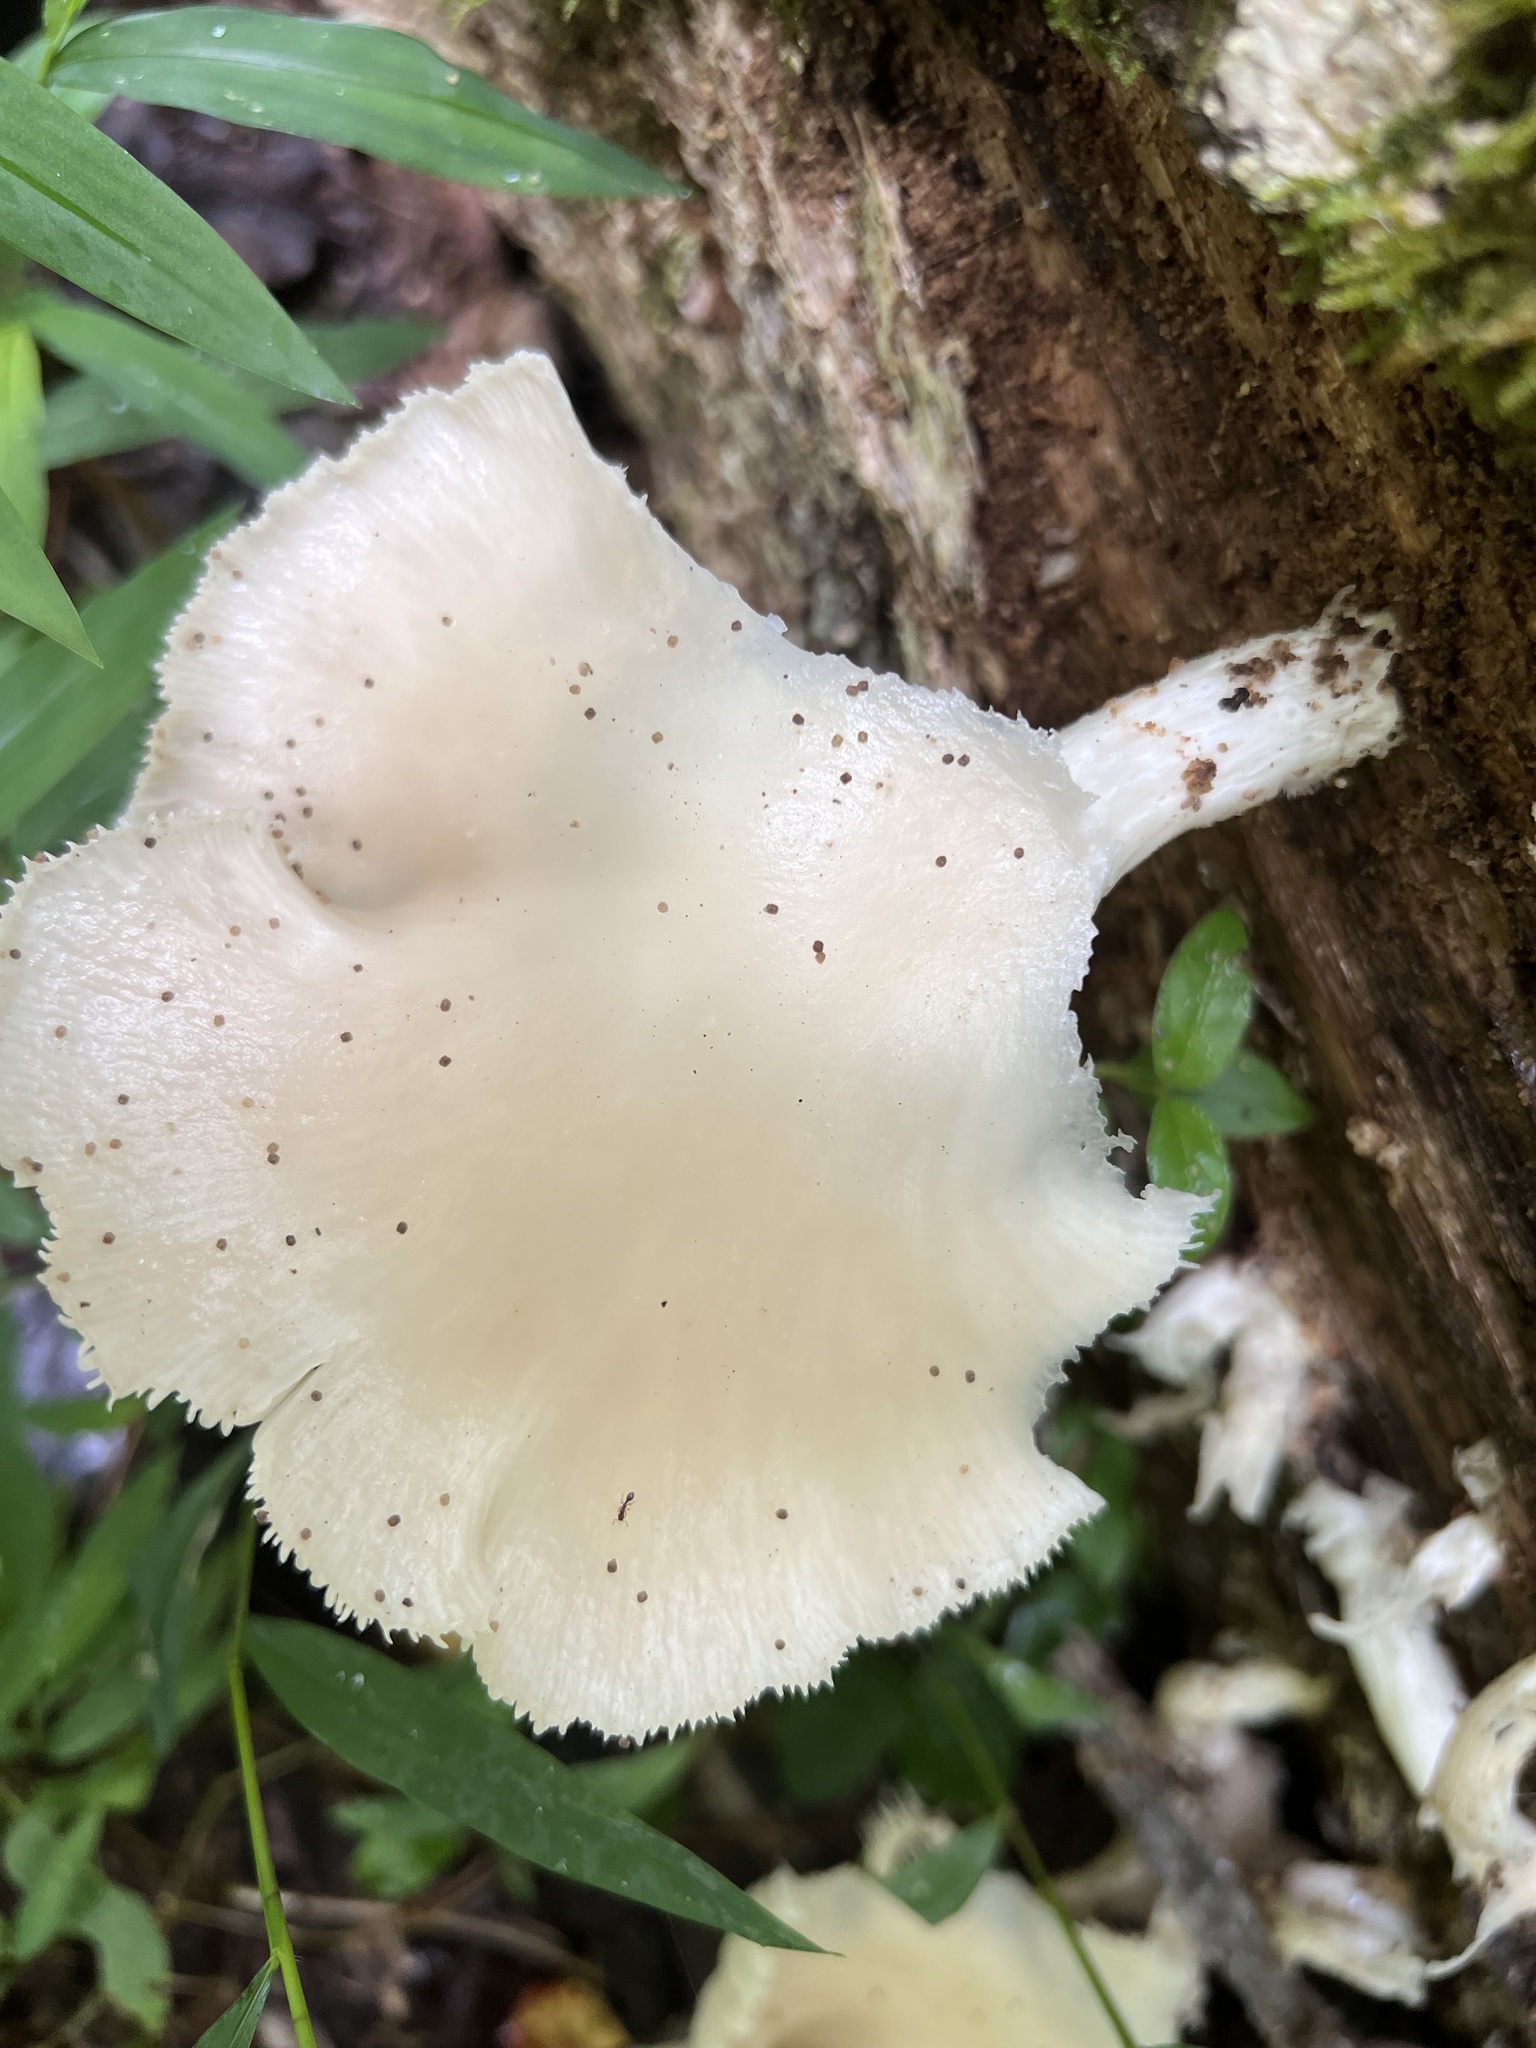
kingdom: Fungi
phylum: Basidiomycota
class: Agaricomycetes
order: Agaricales
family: Pleurotaceae
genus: Pleurotus
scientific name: Pleurotus pulmonarius
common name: Pale oyster
